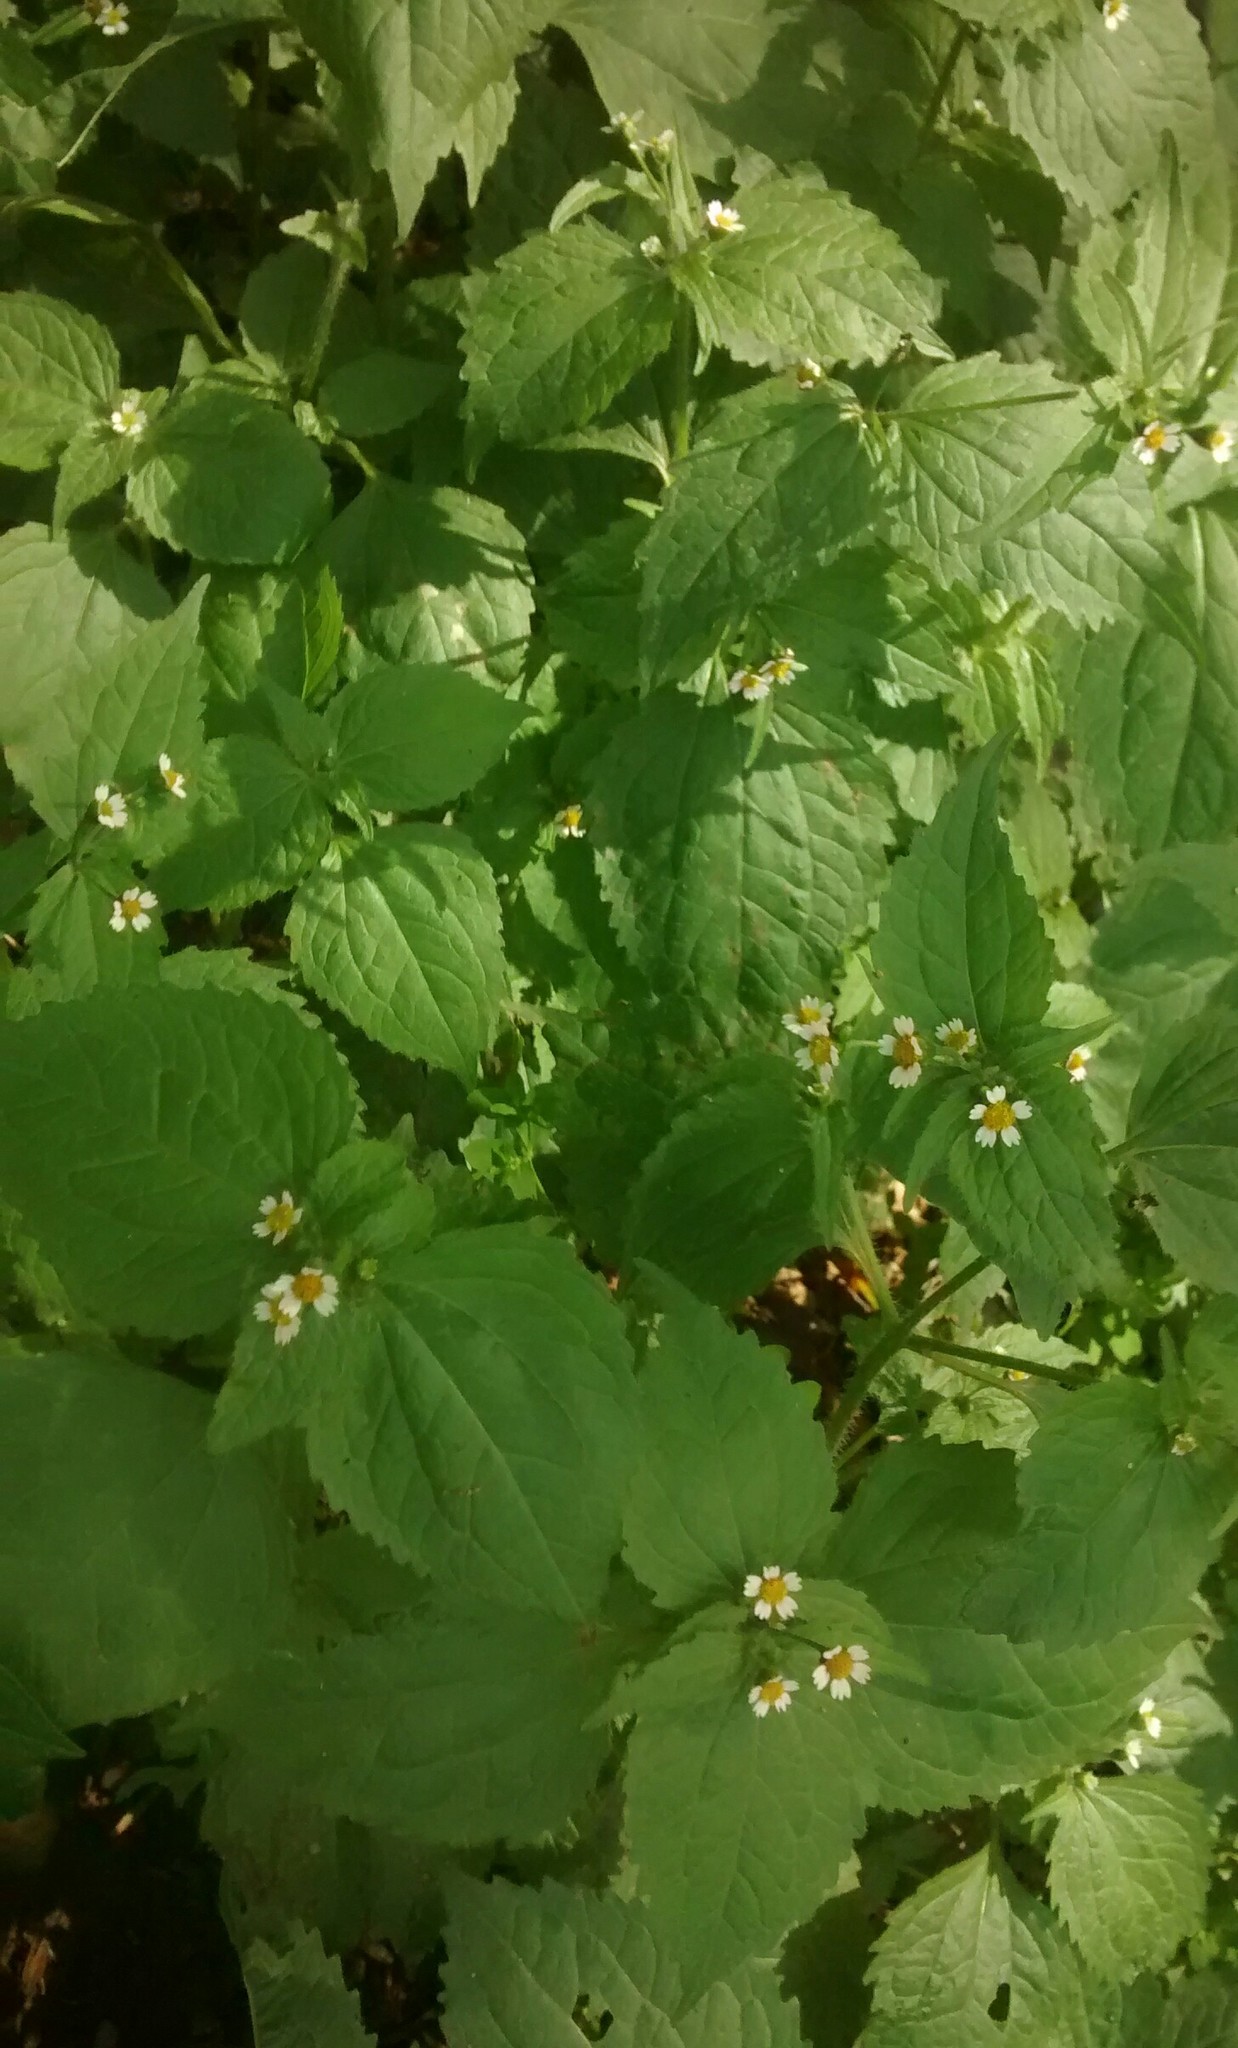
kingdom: Plantae
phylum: Tracheophyta
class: Magnoliopsida
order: Asterales
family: Asteraceae
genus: Galinsoga
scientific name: Galinsoga quadriradiata
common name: Shaggy soldier
